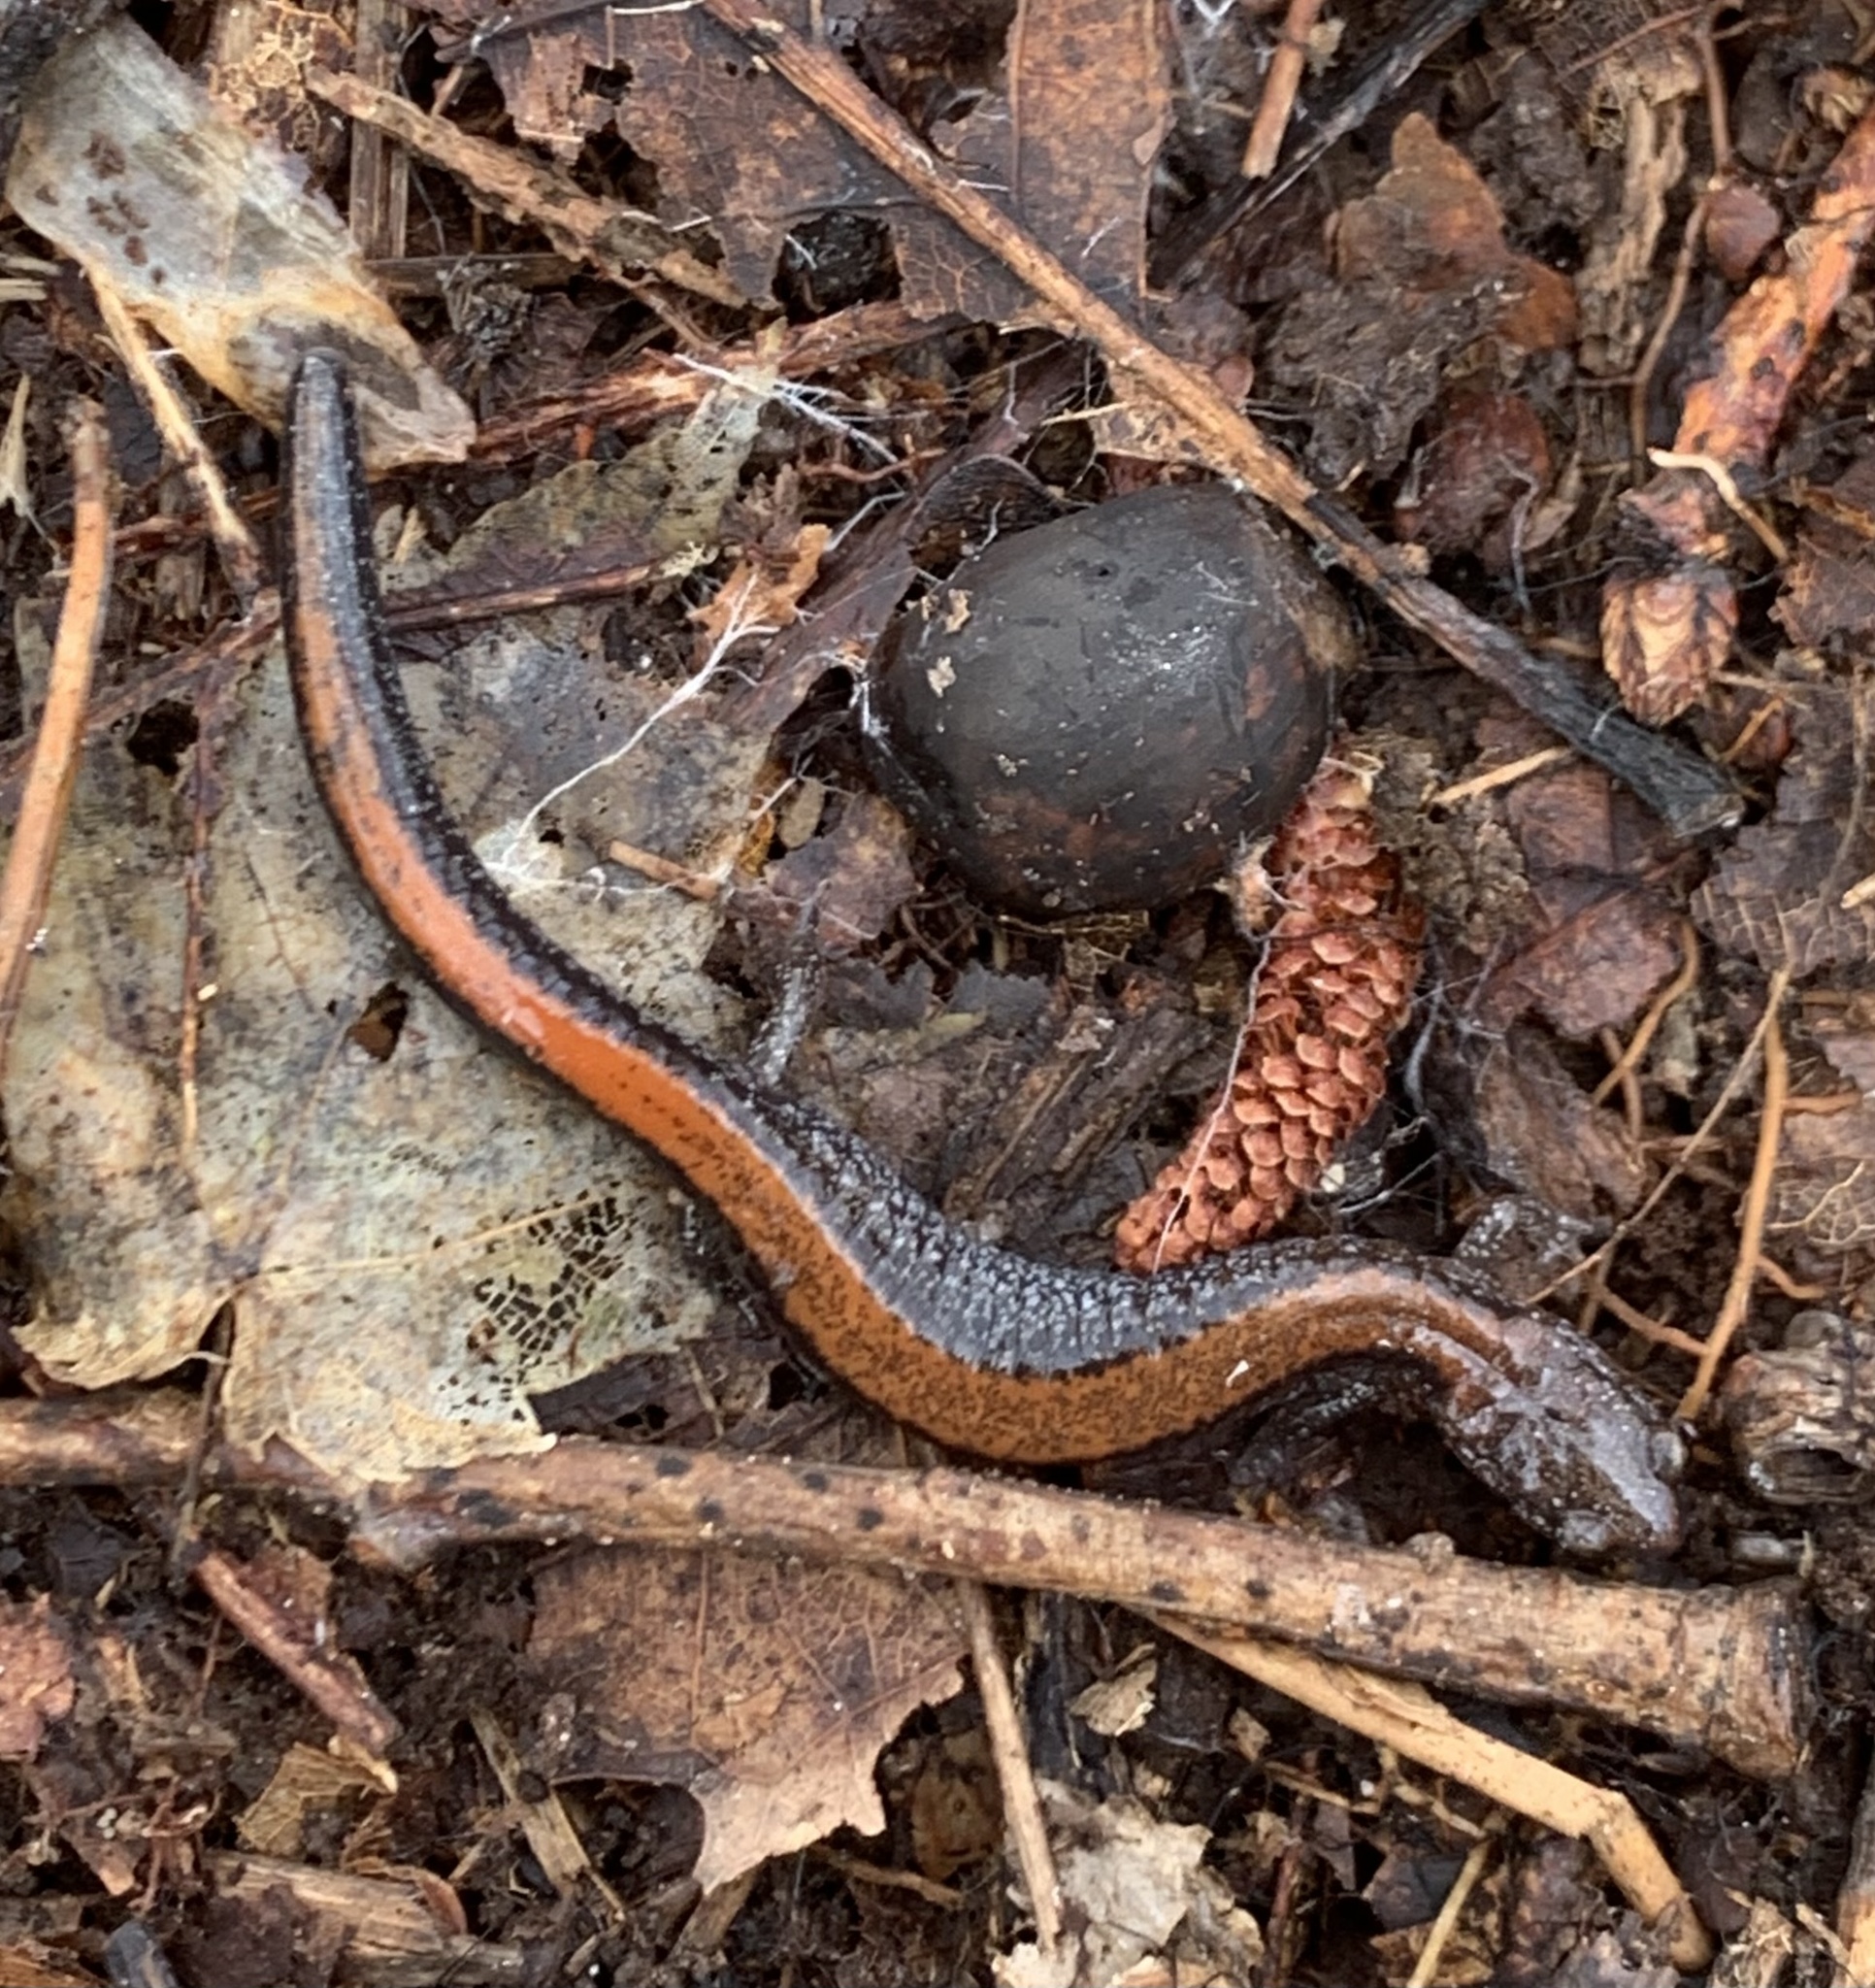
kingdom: Animalia
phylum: Chordata
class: Amphibia
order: Caudata
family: Plethodontidae
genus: Plethodon
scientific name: Plethodon cinereus
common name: Redback salamander
